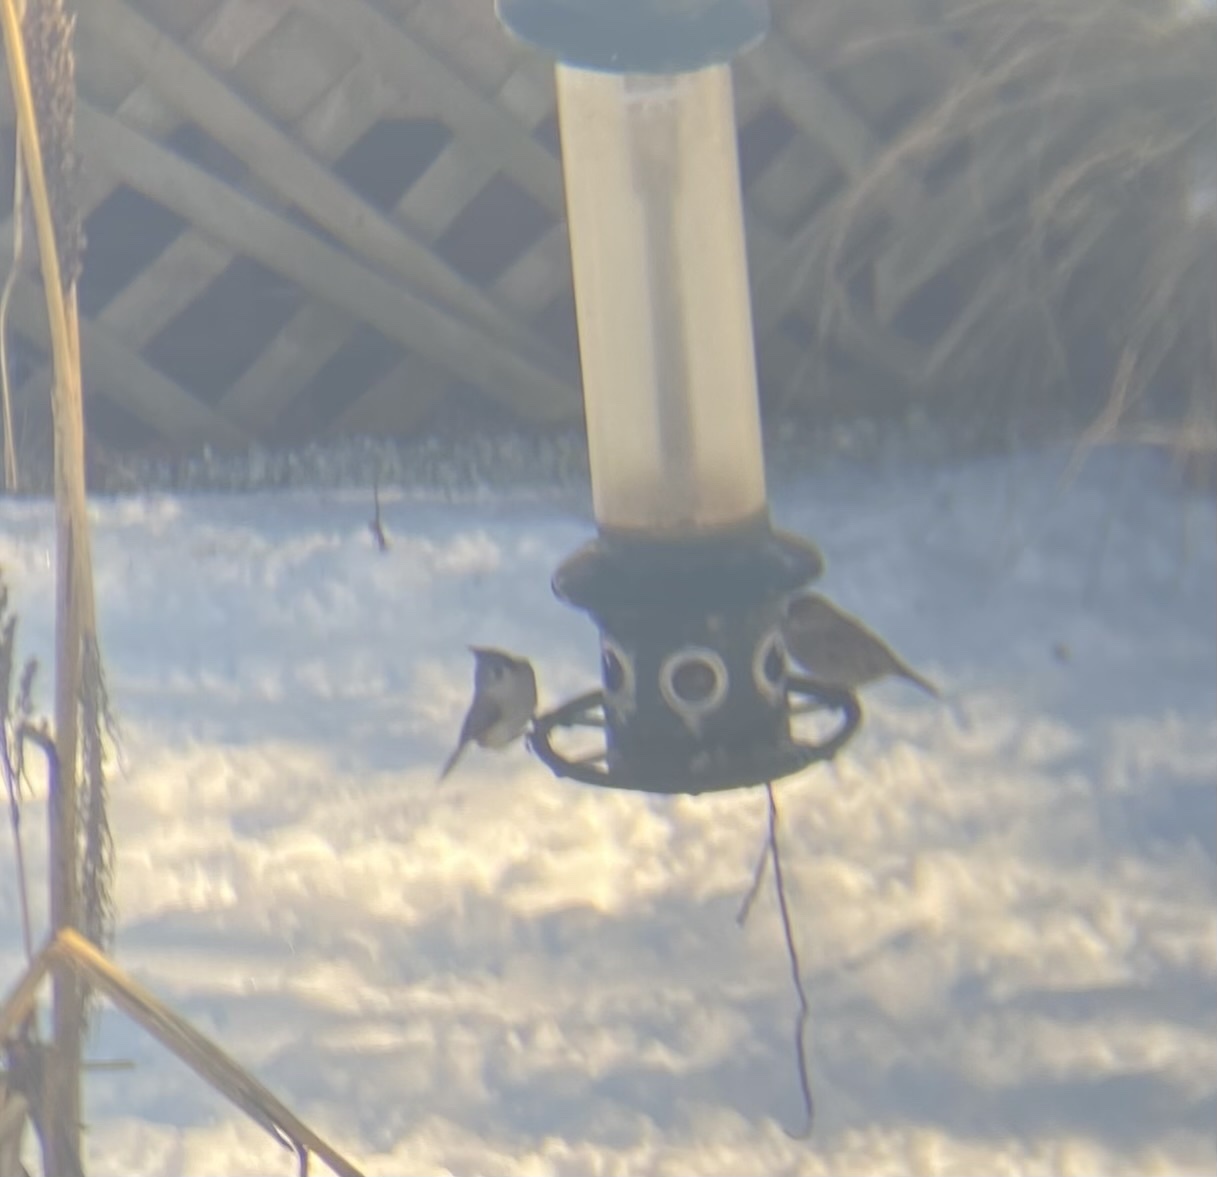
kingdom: Animalia
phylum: Chordata
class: Aves
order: Passeriformes
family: Paridae
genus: Baeolophus
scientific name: Baeolophus bicolor
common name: Tufted titmouse
